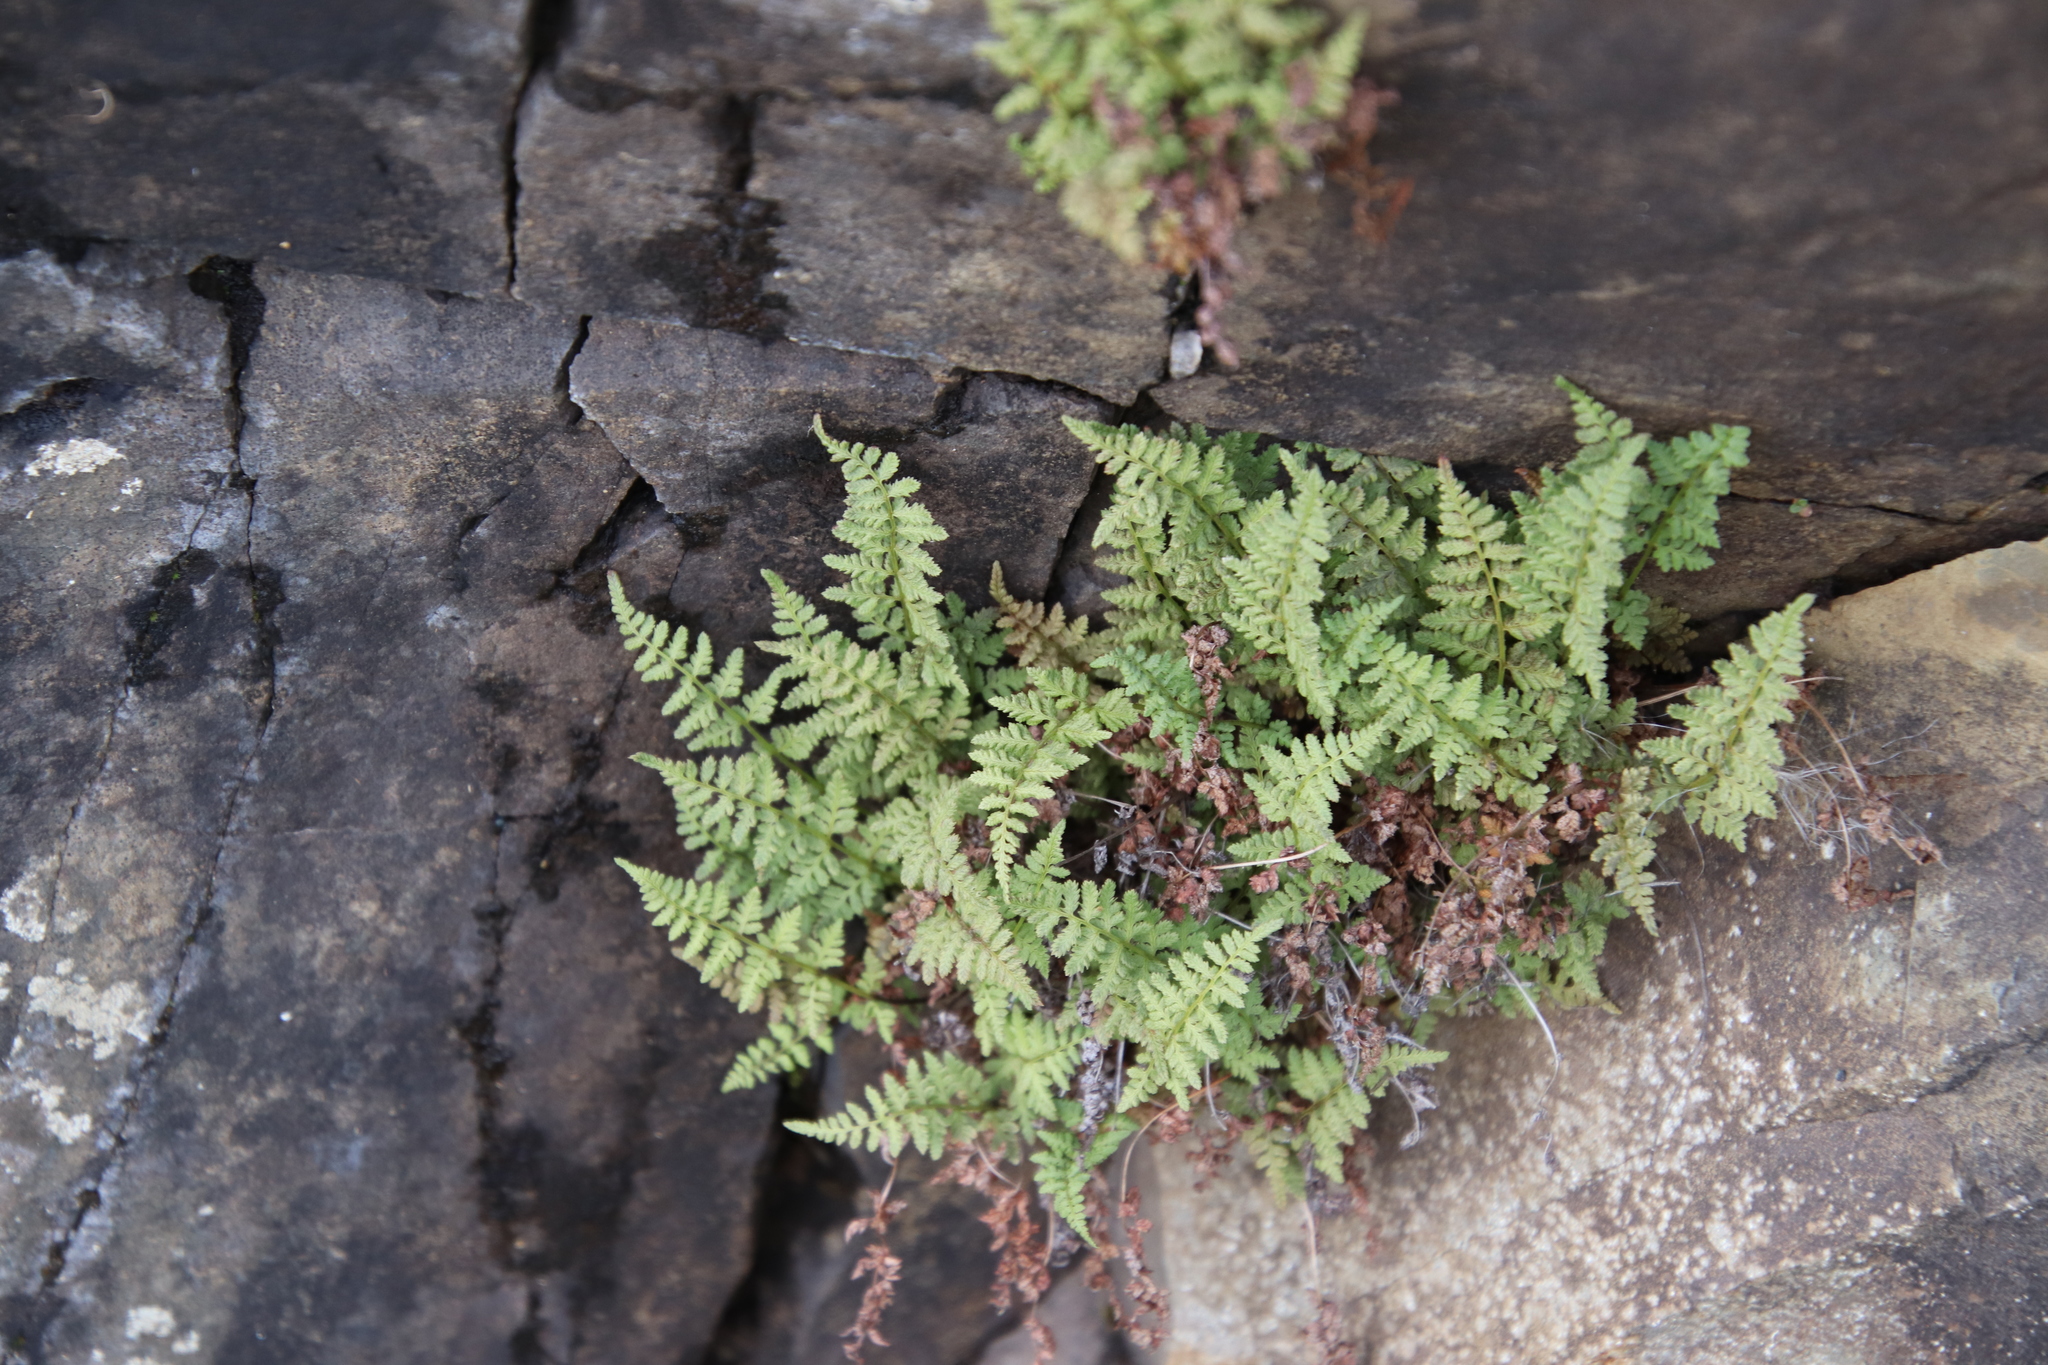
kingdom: Plantae
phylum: Tracheophyta
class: Polypodiopsida
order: Polypodiales
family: Cystopteridaceae
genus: Cystopteris
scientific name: Cystopteris fragilis
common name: Brittle bladder fern
